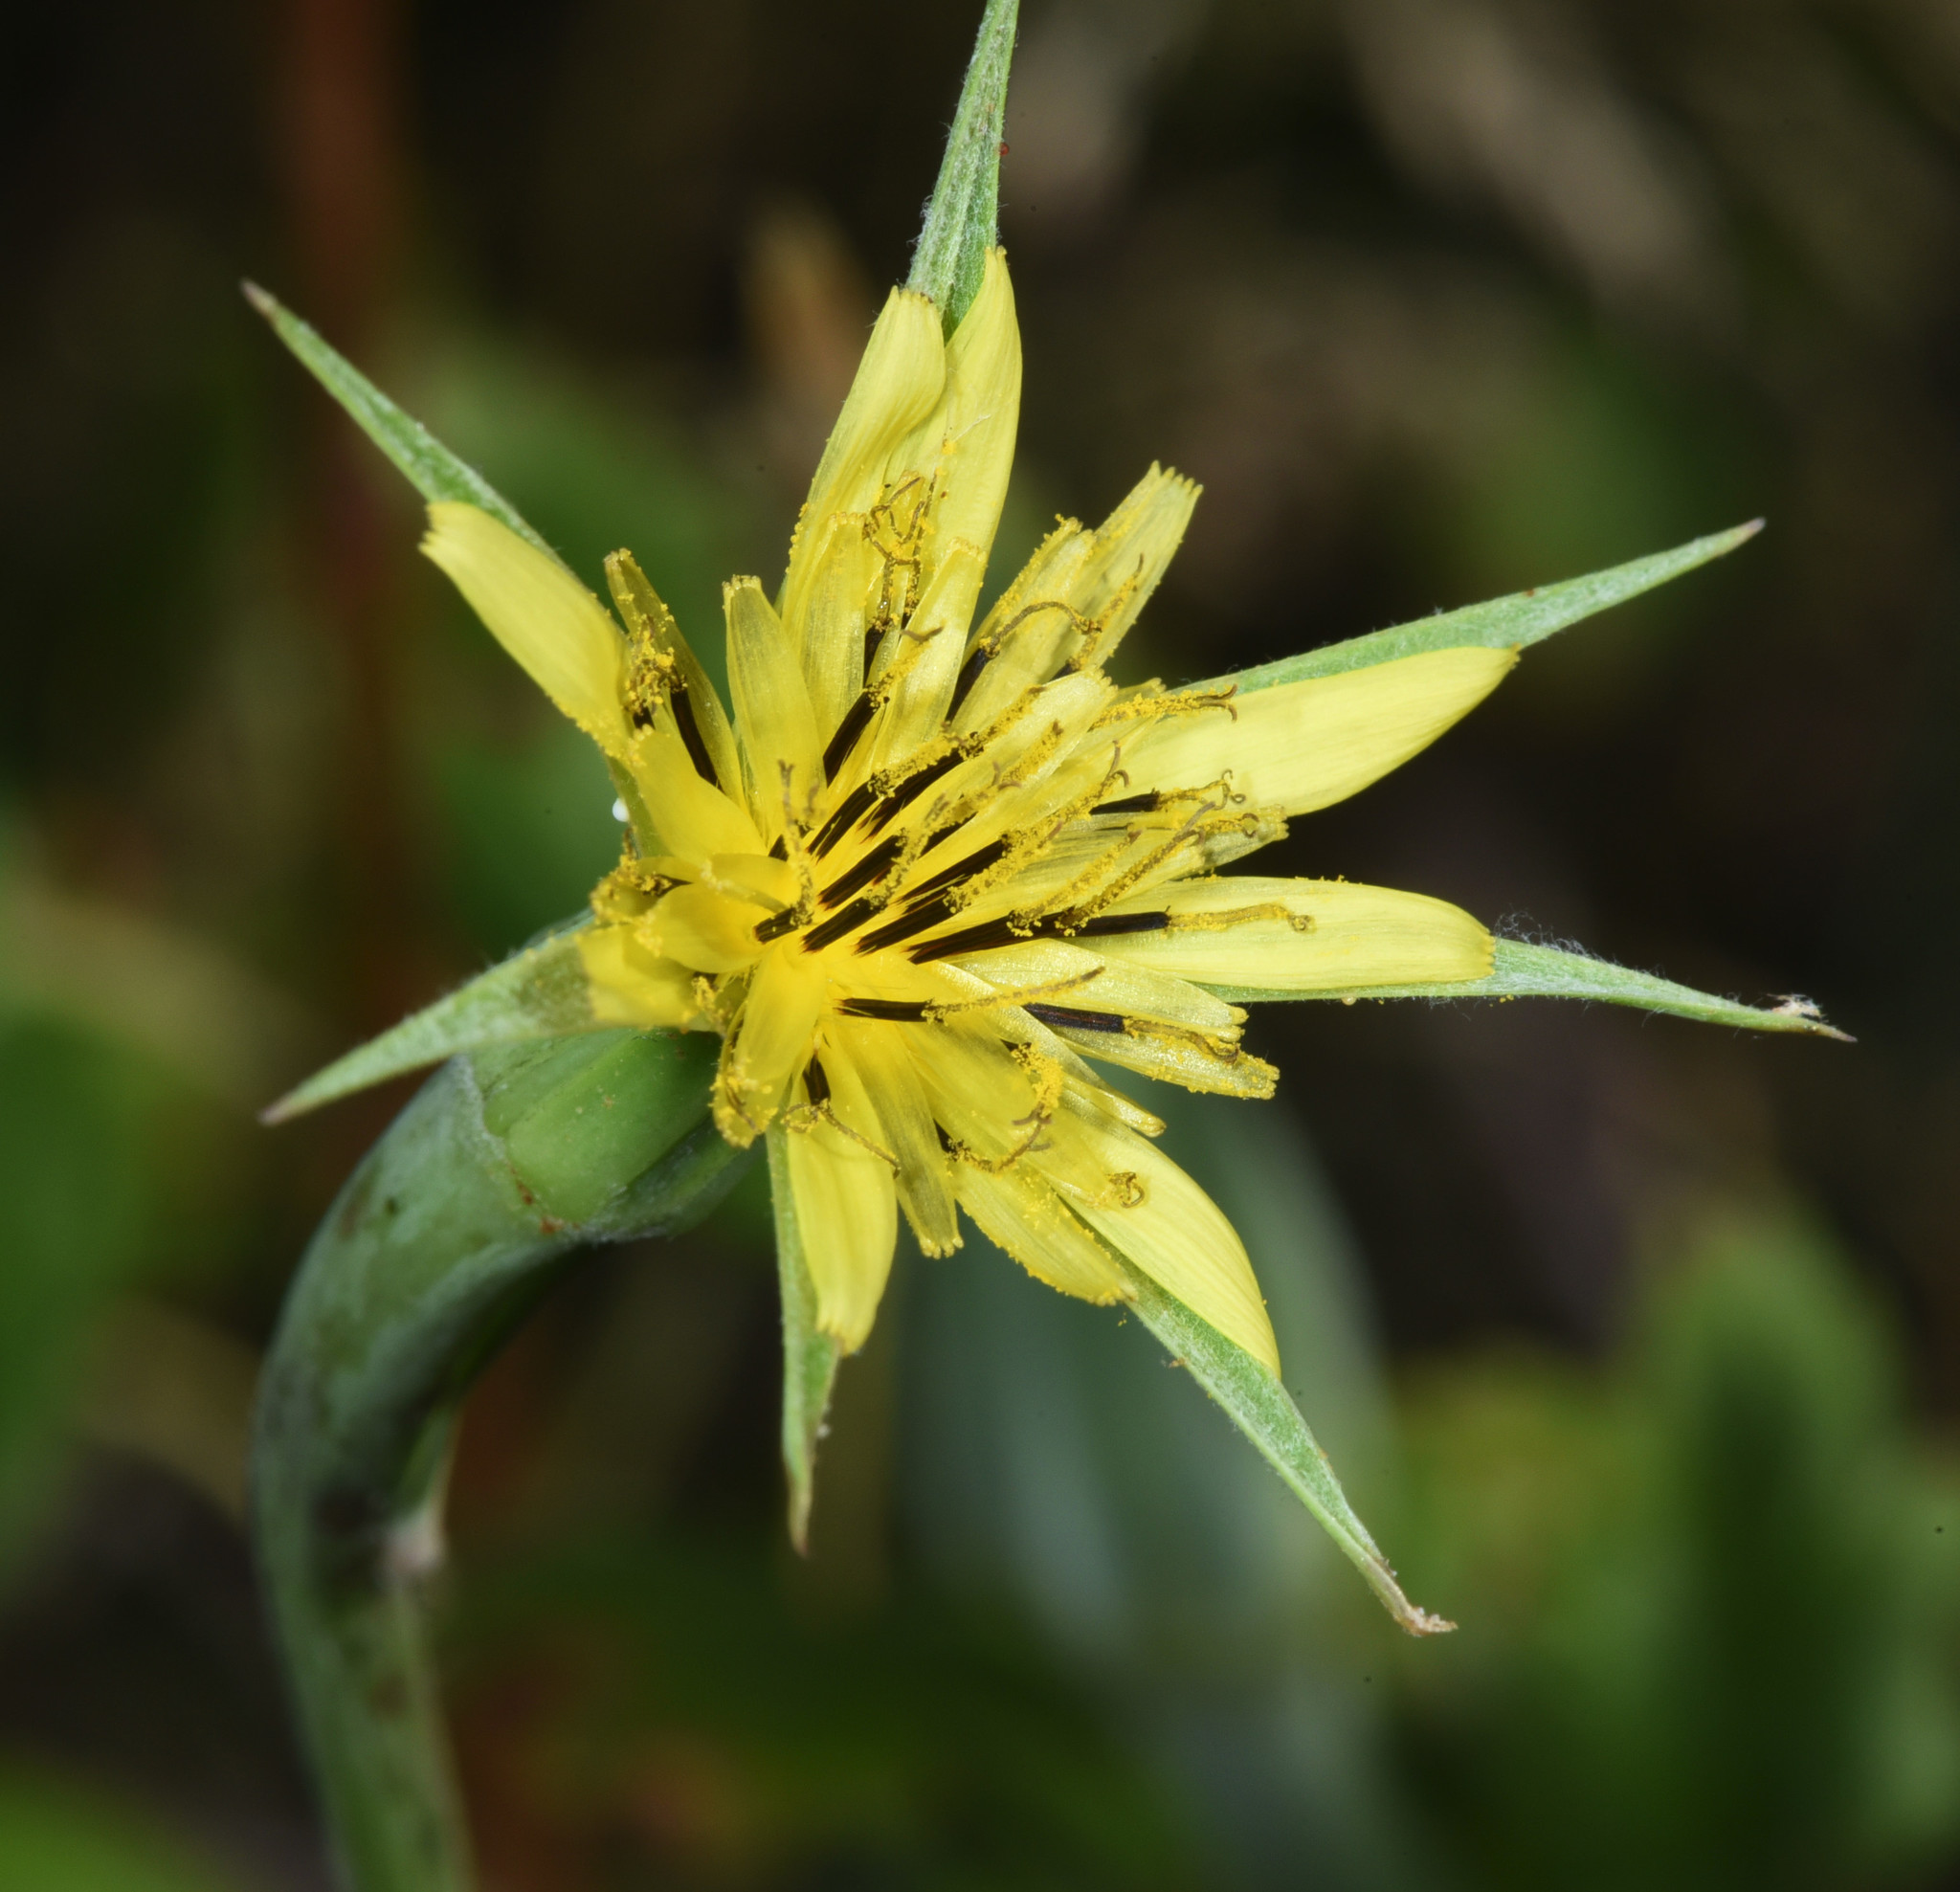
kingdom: Plantae
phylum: Tracheophyta
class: Magnoliopsida
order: Asterales
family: Asteraceae
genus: Tragopogon
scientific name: Tragopogon dubius
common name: Yellow salsify
